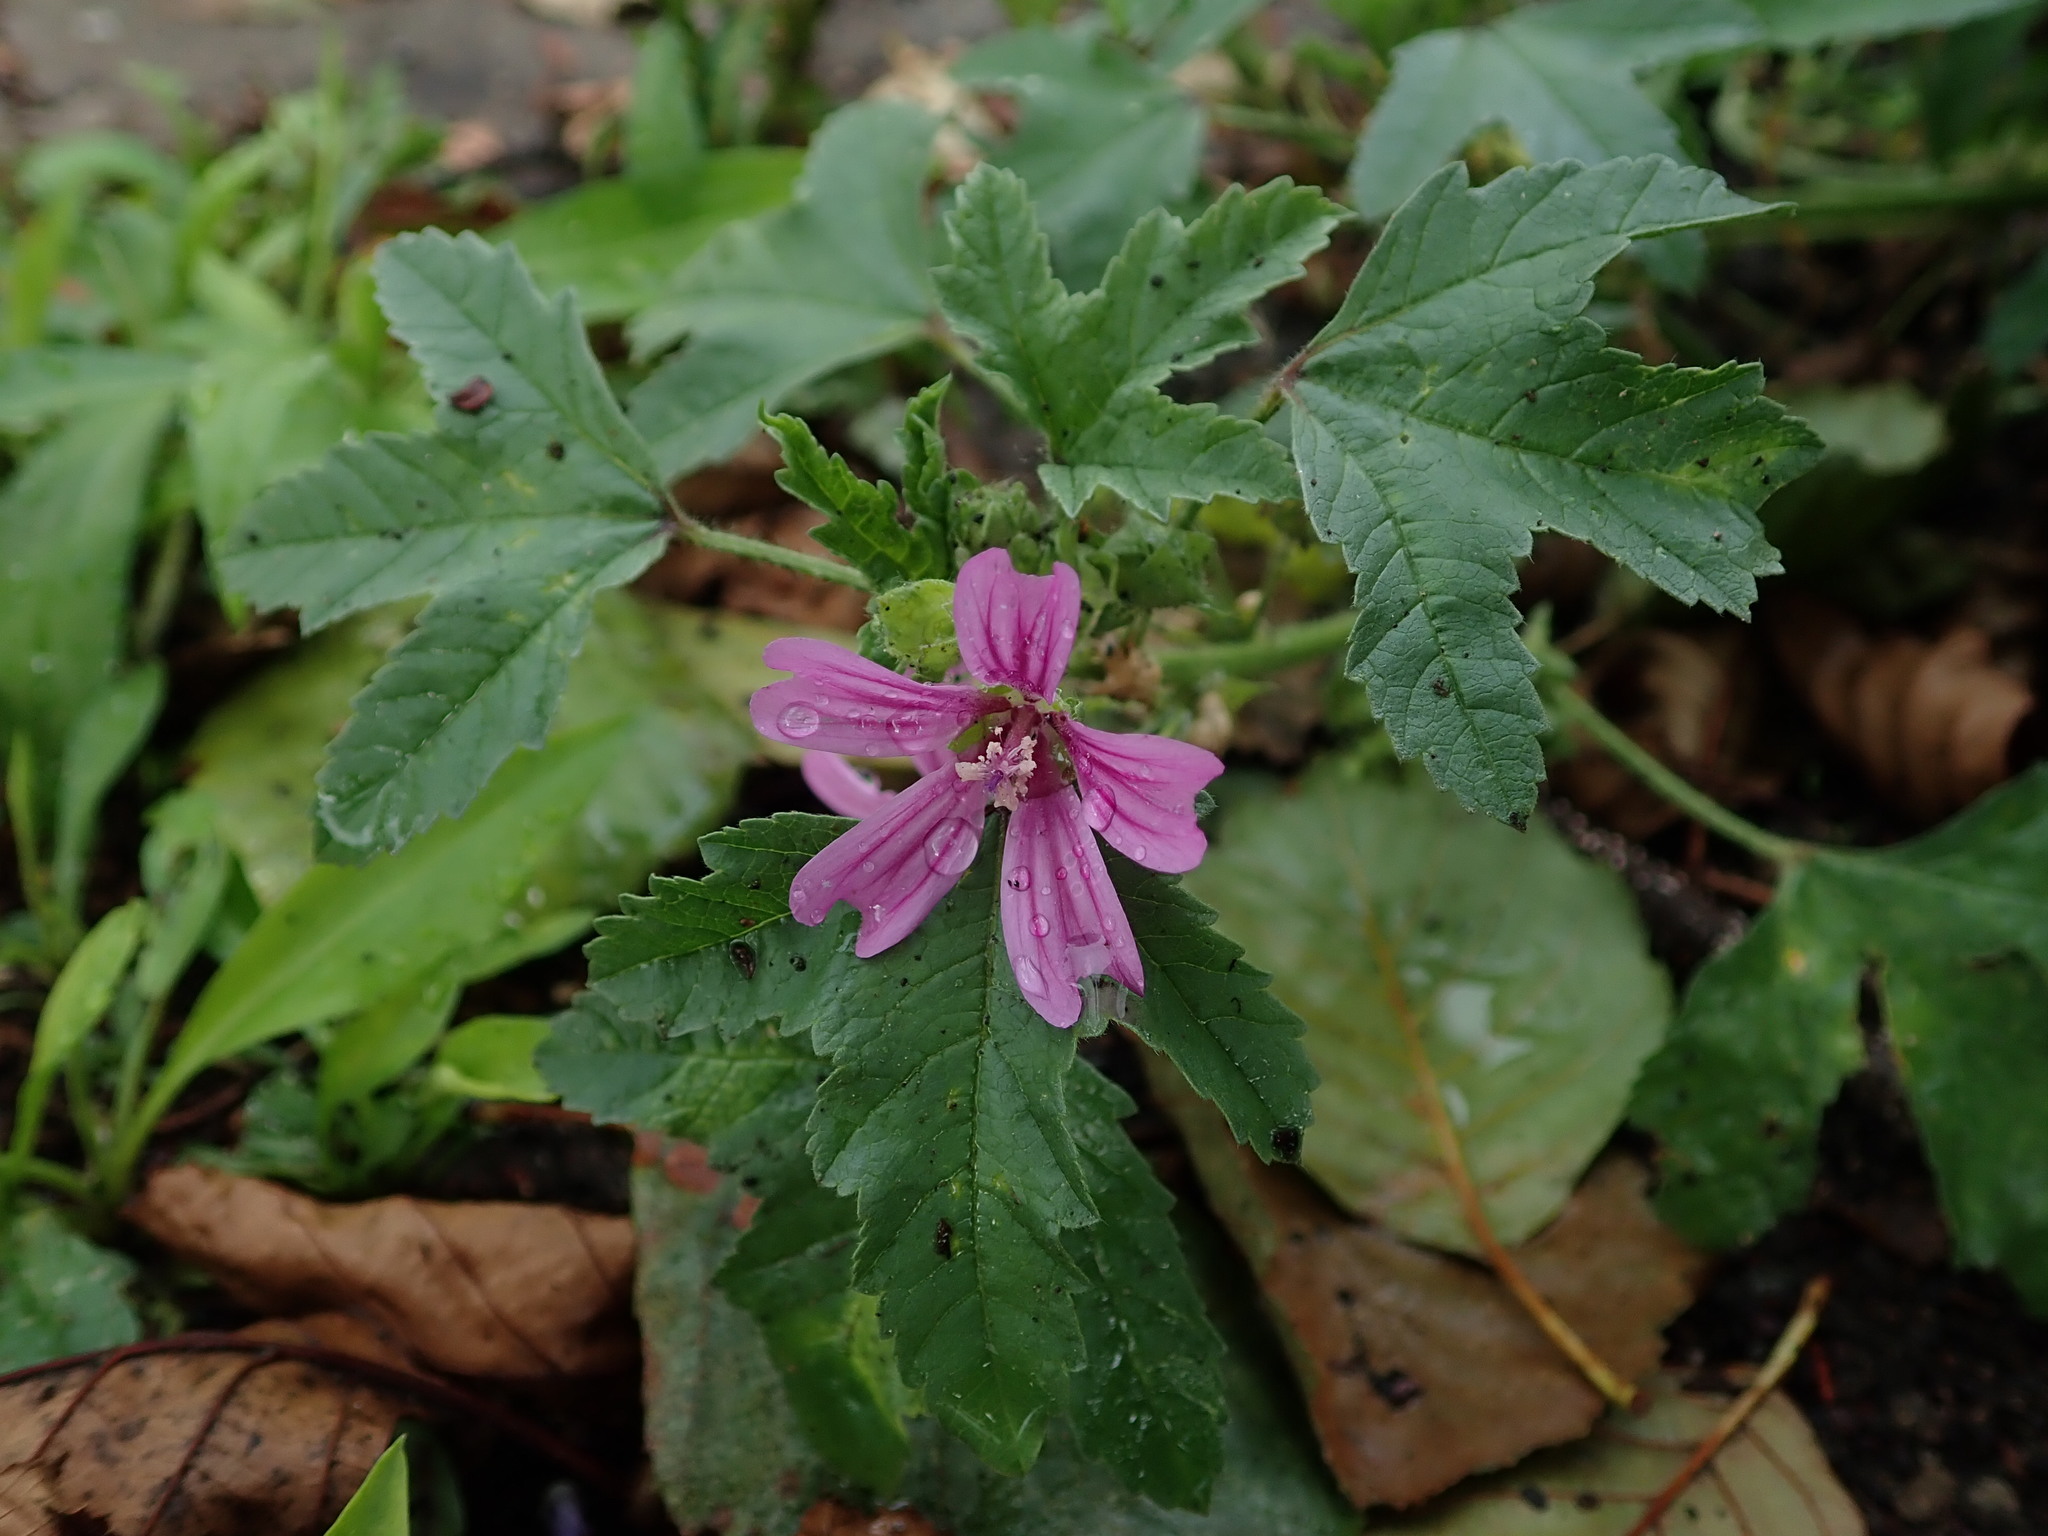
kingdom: Plantae
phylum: Tracheophyta
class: Magnoliopsida
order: Malvales
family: Malvaceae
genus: Malva
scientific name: Malva sylvestris
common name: Common mallow
